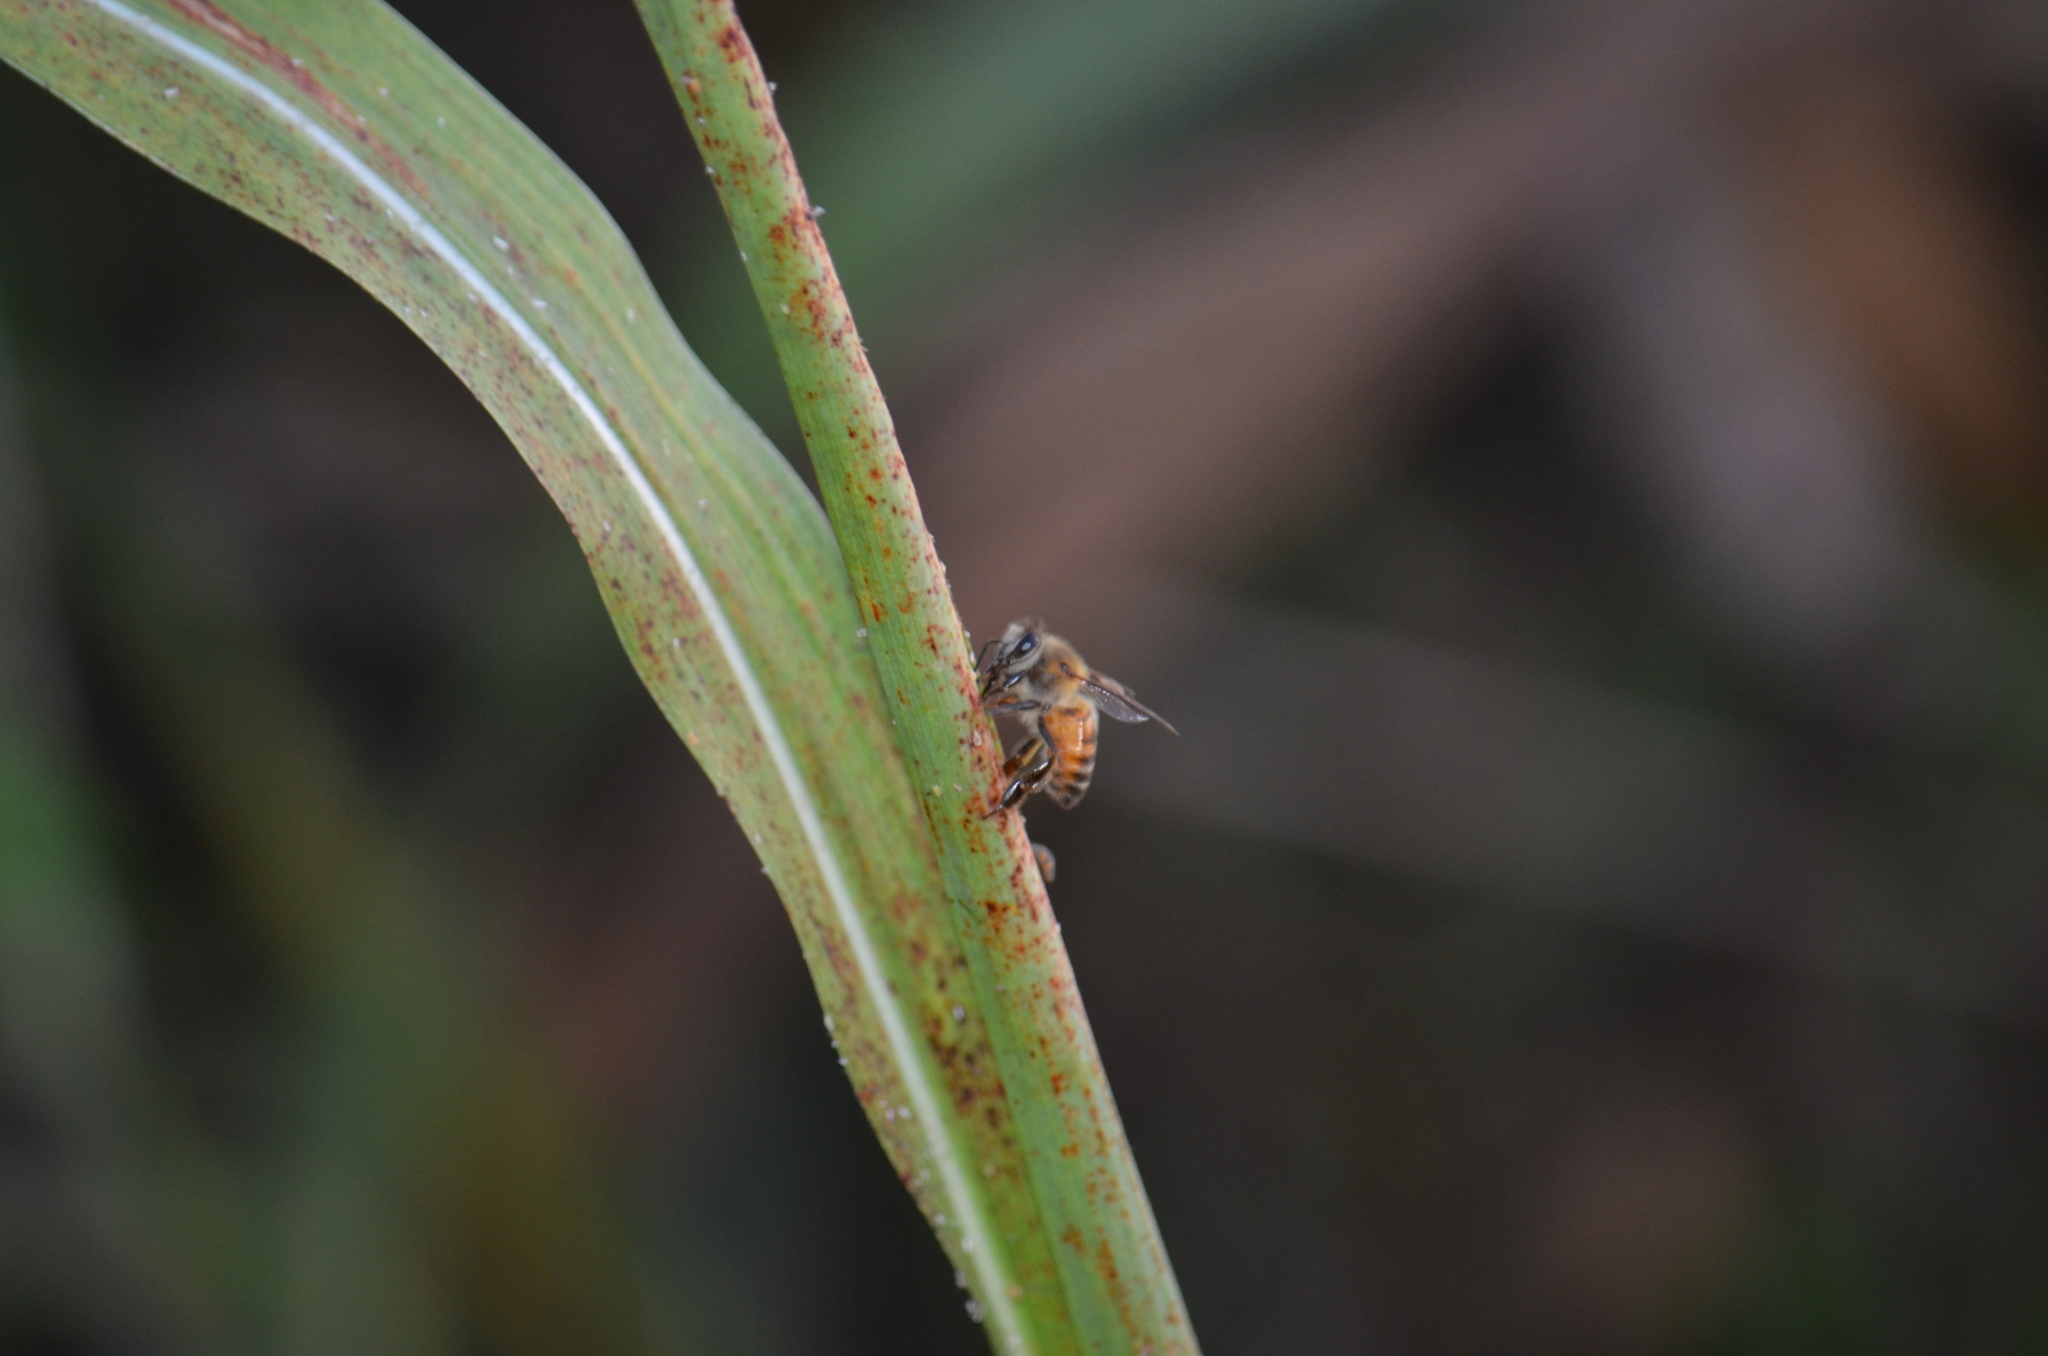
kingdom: Animalia
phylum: Arthropoda
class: Insecta
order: Hymenoptera
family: Apidae
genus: Apis
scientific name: Apis mellifera
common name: Honey bee
